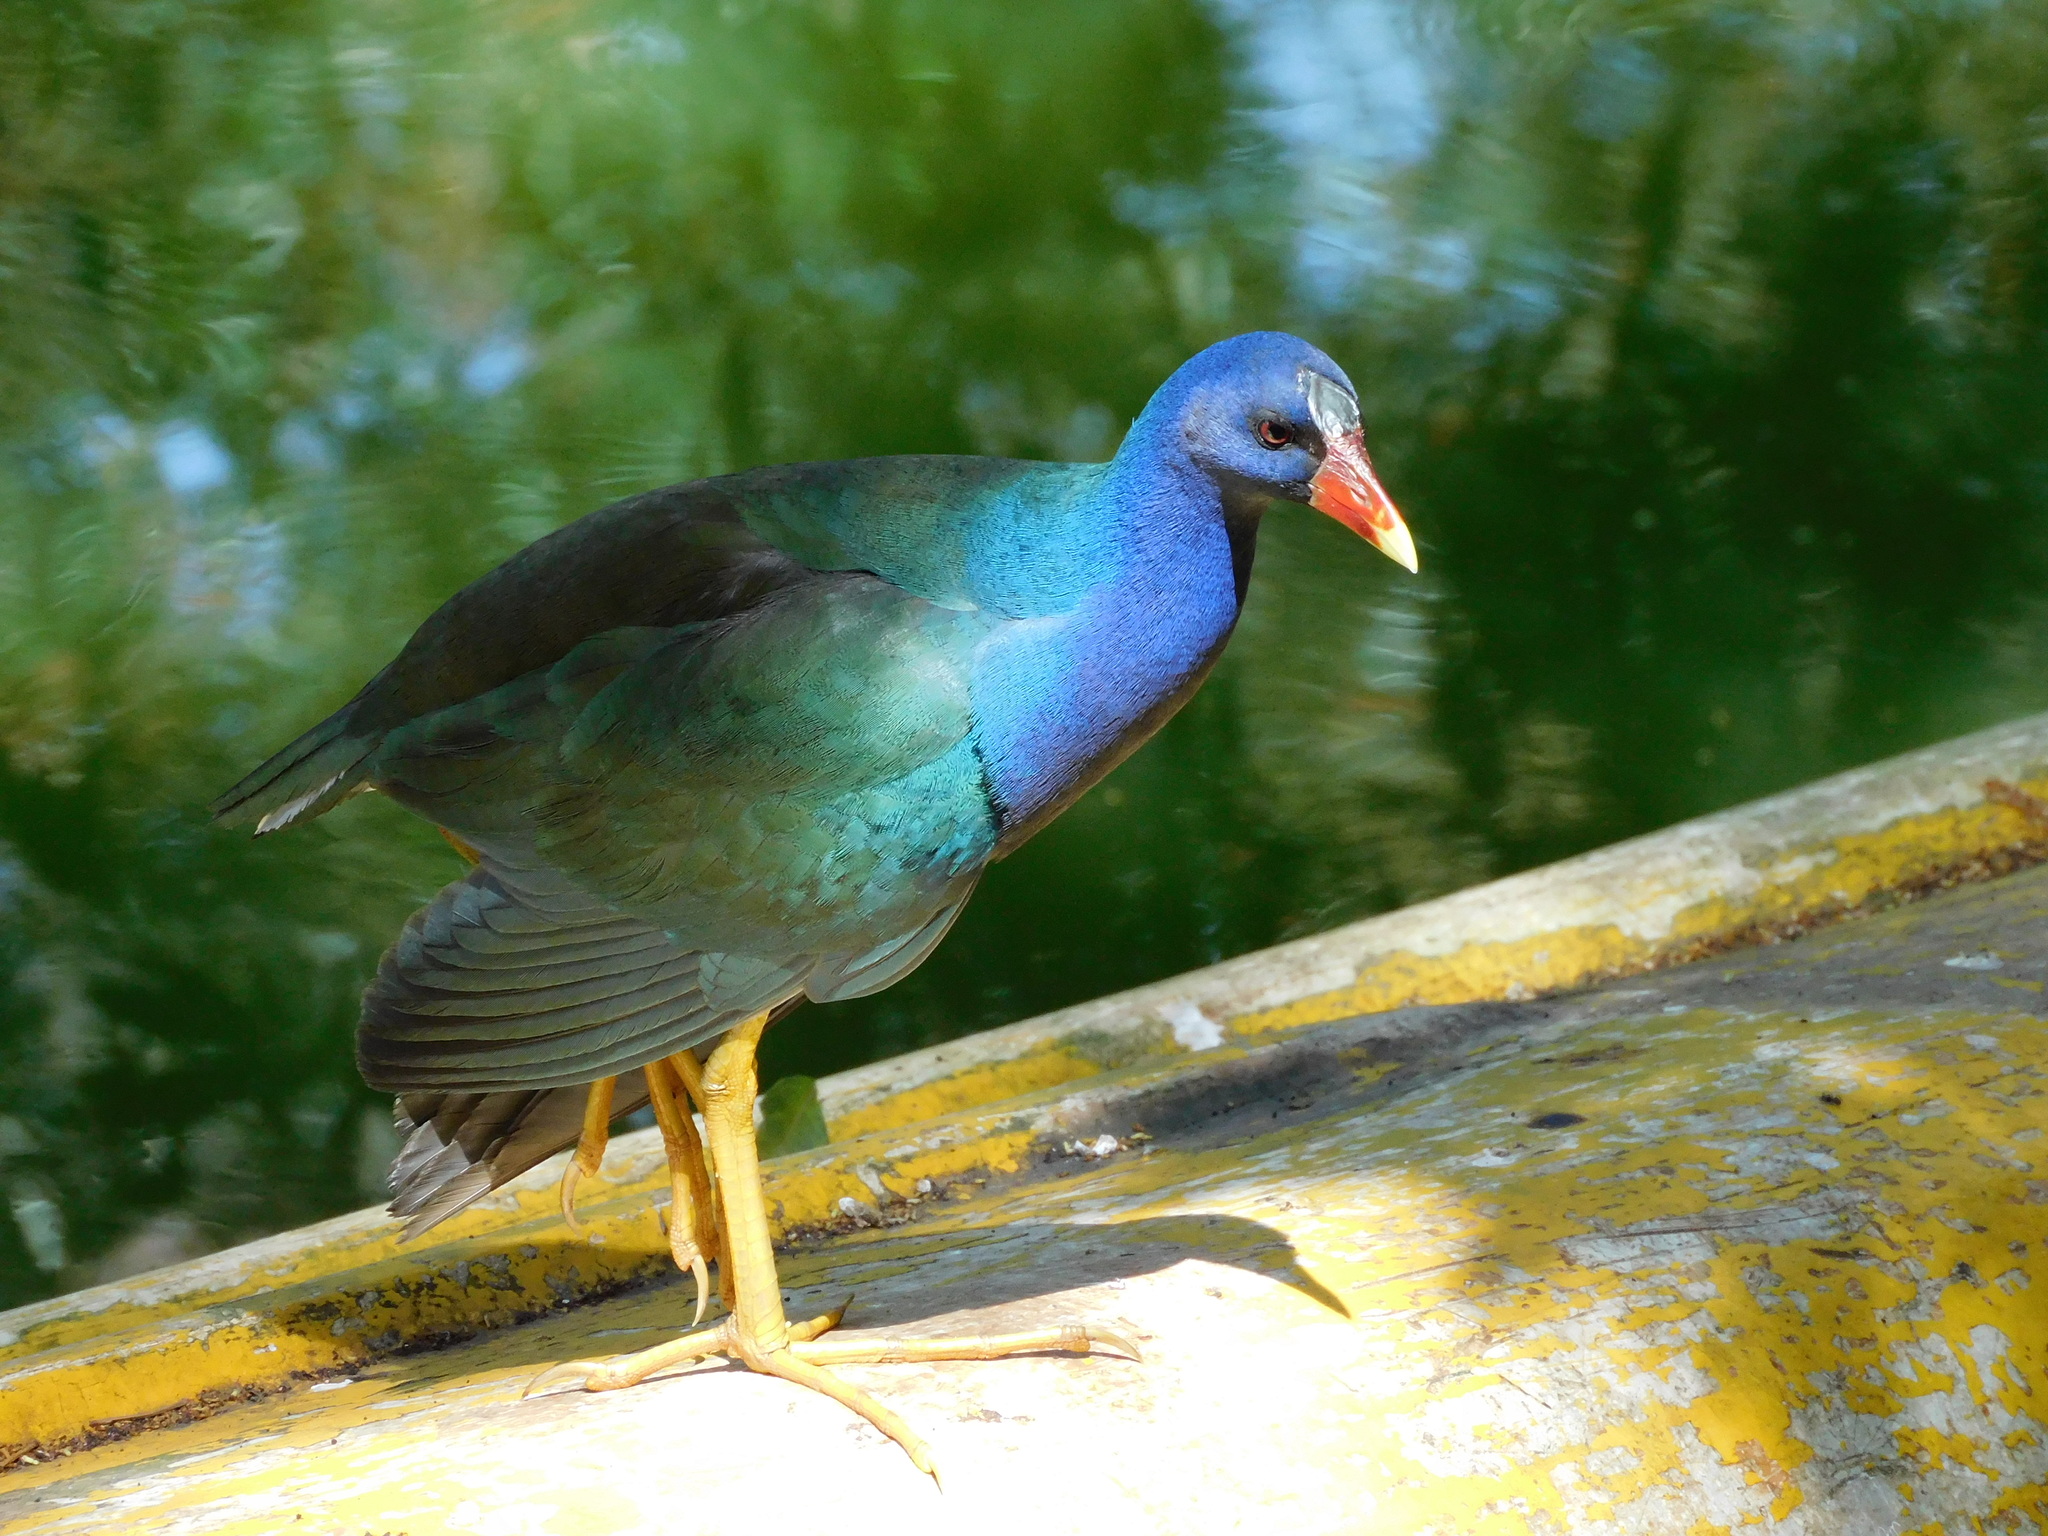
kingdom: Animalia
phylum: Chordata
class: Aves
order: Gruiformes
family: Rallidae
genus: Porphyrio
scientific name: Porphyrio martinica
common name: Purple gallinule
